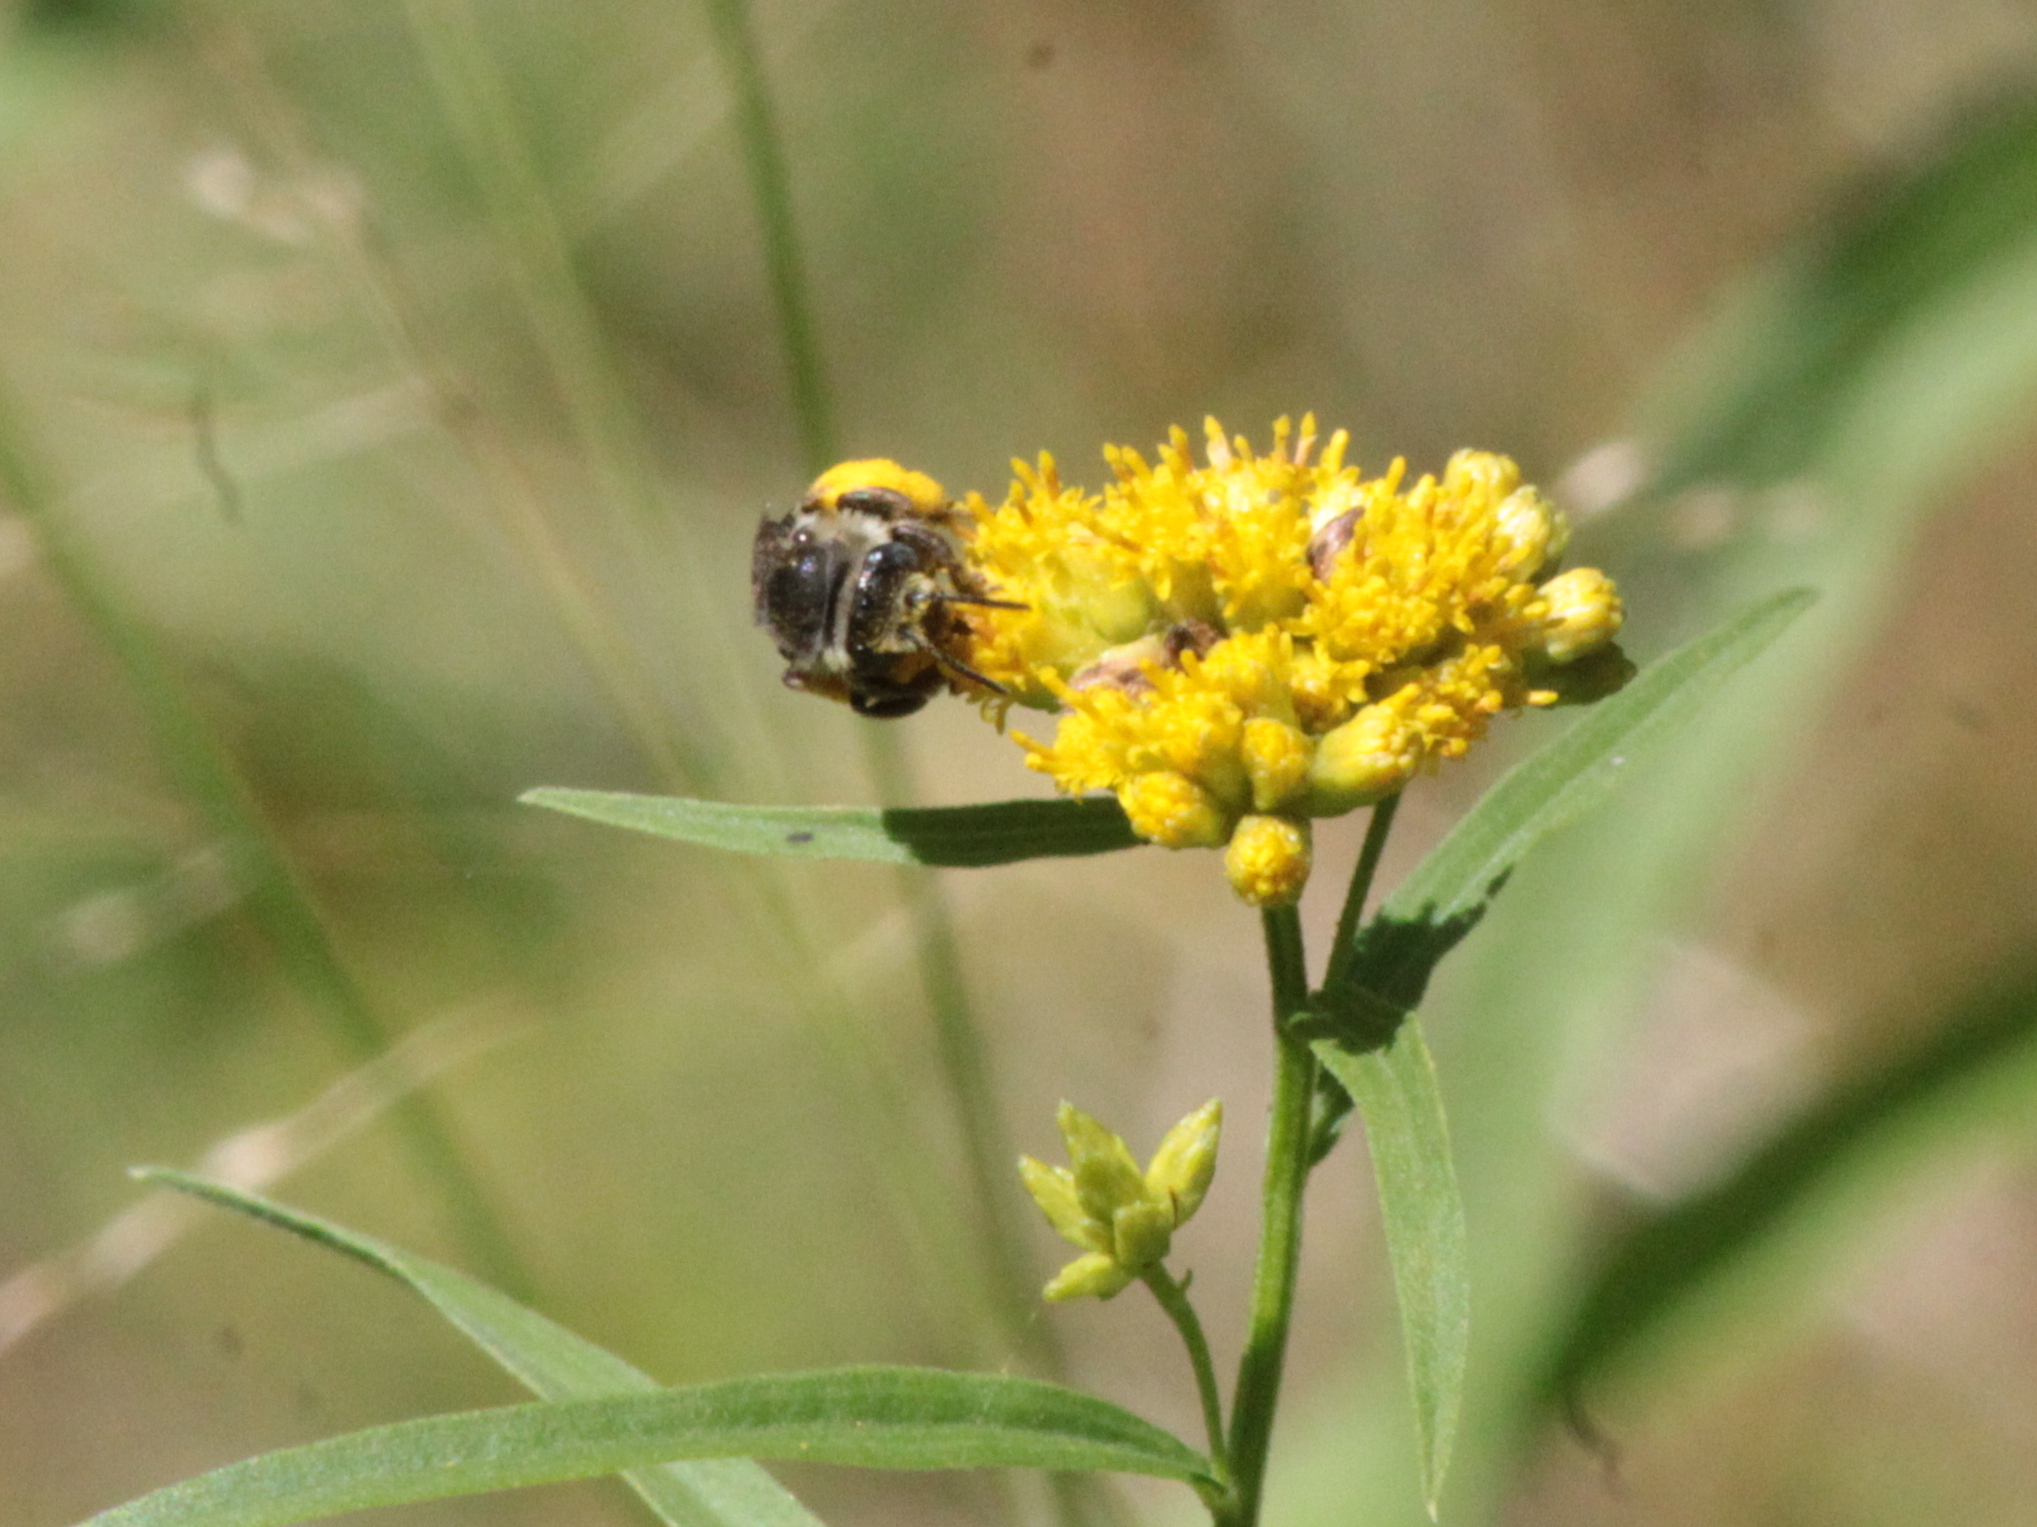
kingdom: Animalia
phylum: Arthropoda
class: Insecta
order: Hymenoptera
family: Apidae
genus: Melissodes
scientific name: Melissodes illatus
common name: Valiant long-horned bee
